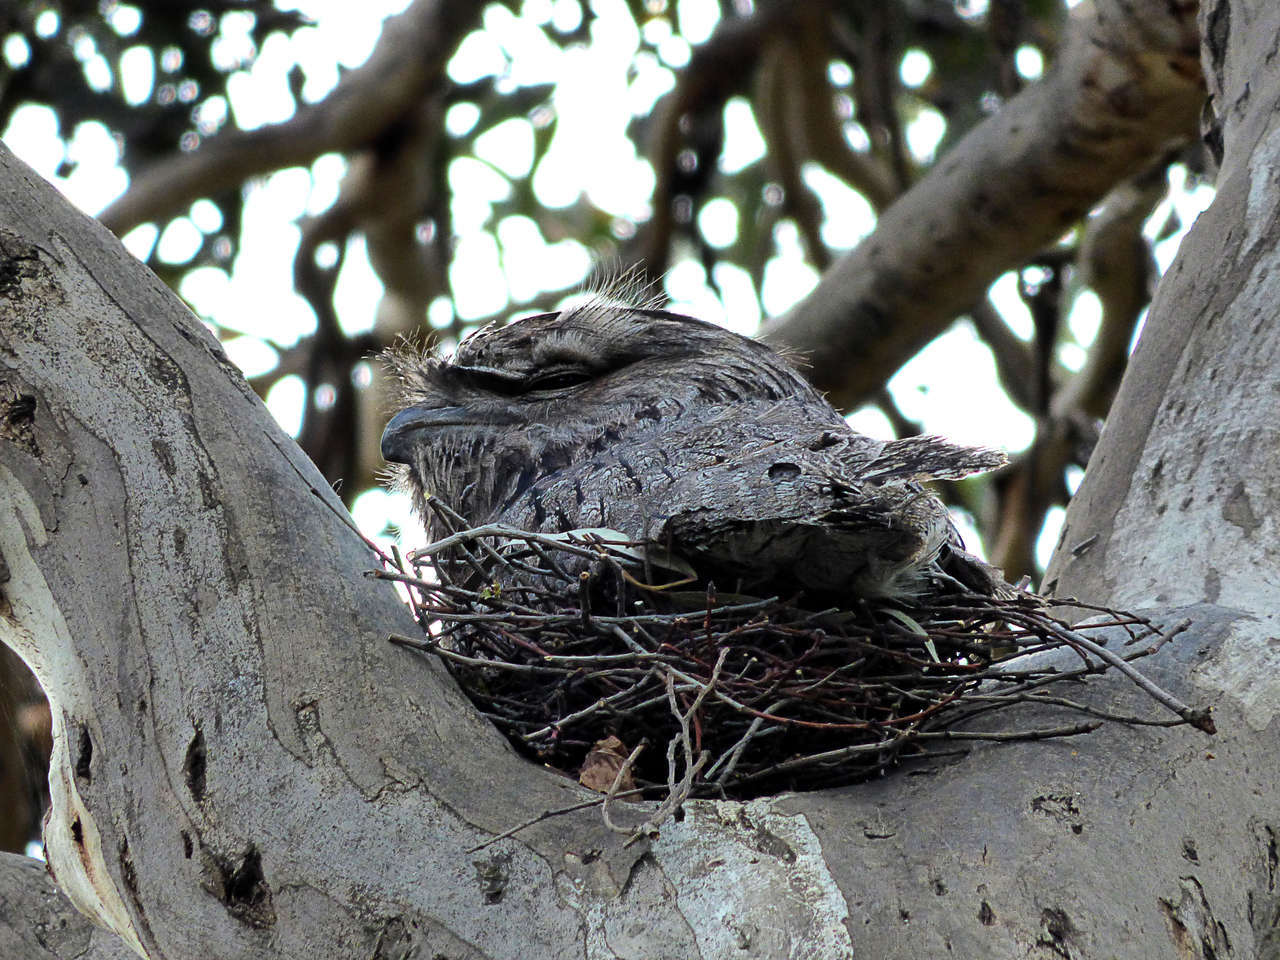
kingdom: Animalia
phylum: Chordata
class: Aves
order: Caprimulgiformes
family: Podargidae
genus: Podargus
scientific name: Podargus strigoides
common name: Tawny frogmouth
